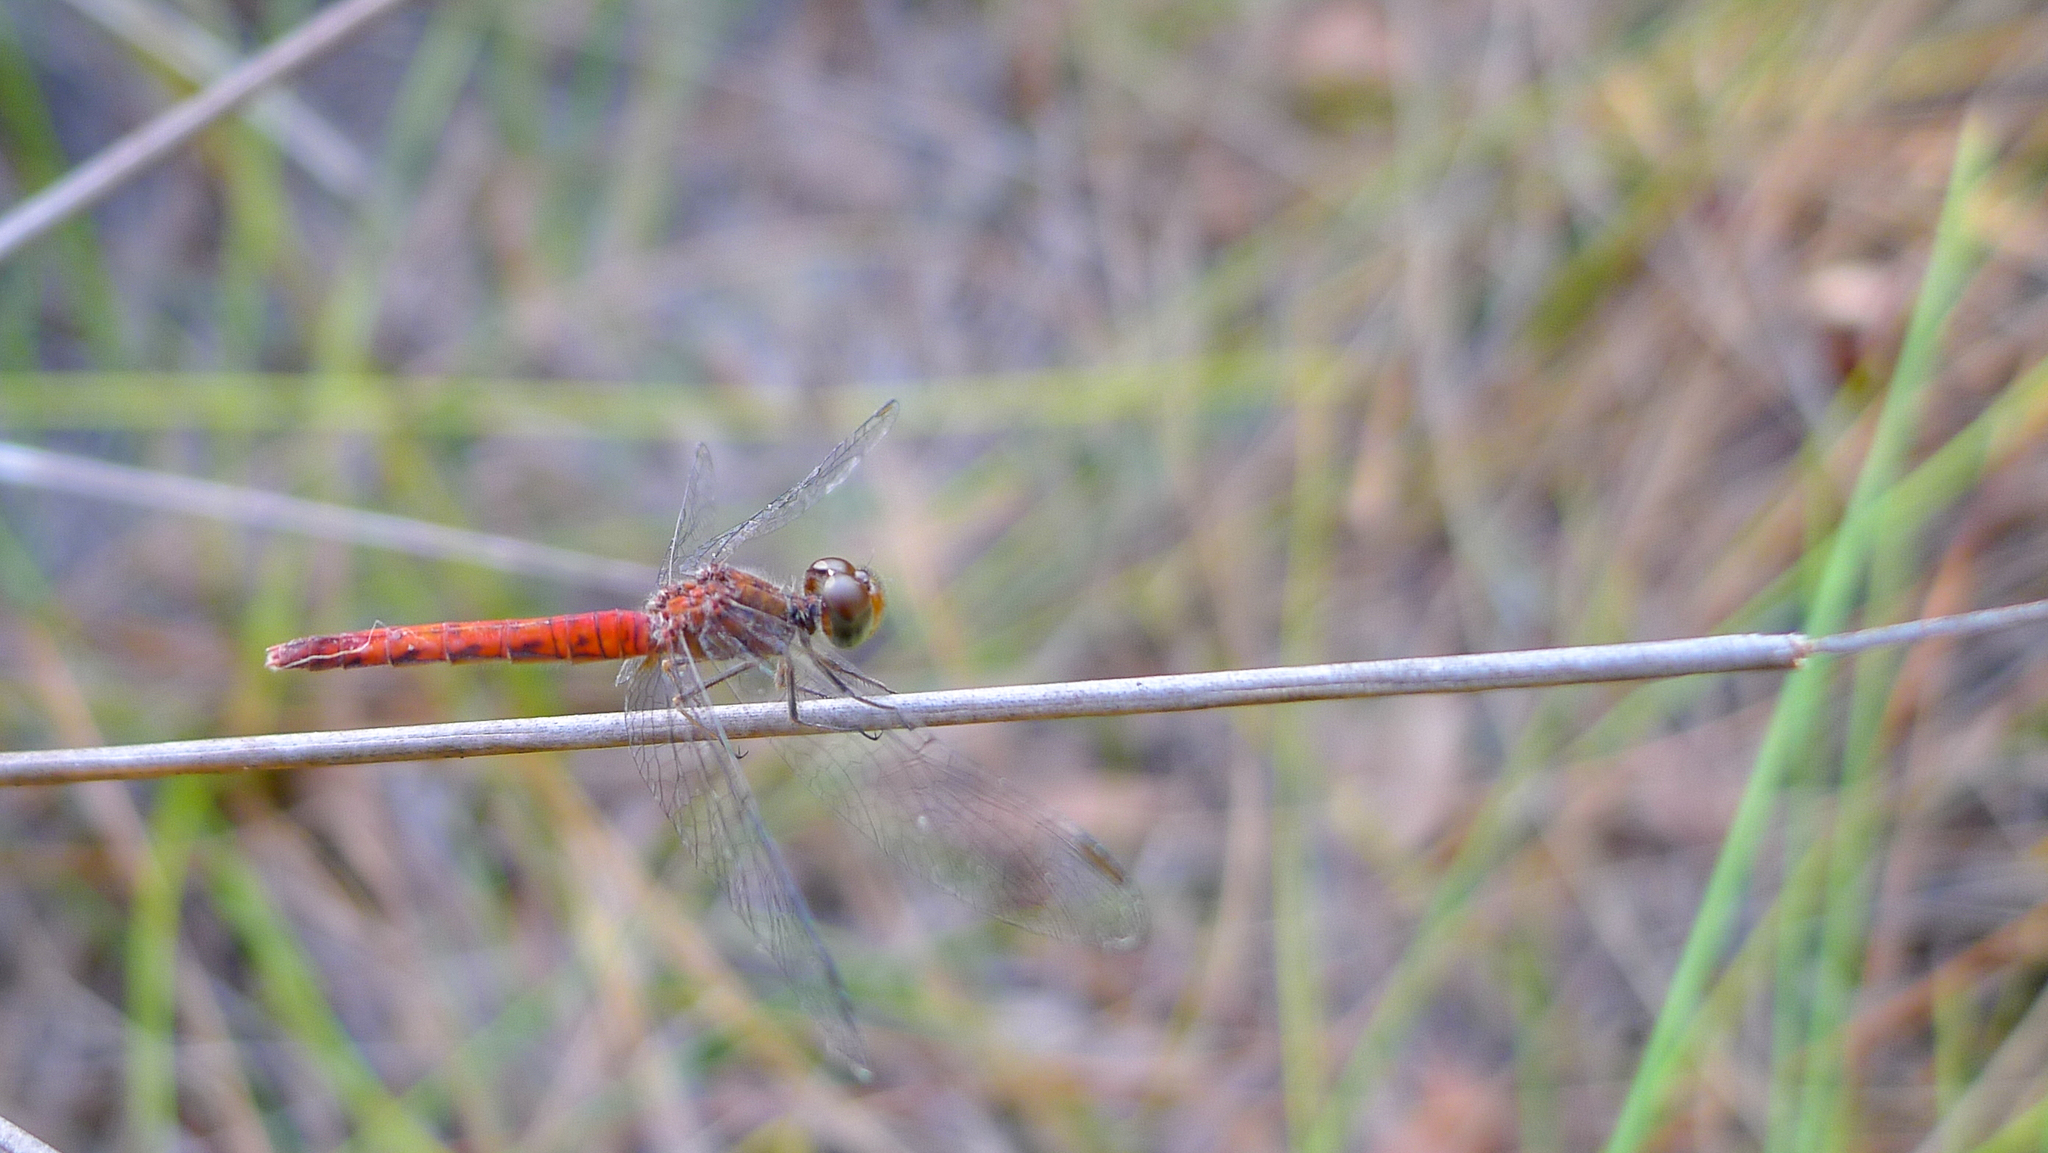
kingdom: Animalia
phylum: Arthropoda
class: Insecta
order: Odonata
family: Libellulidae
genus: Nannodiplax
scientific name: Nannodiplax rubra
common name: Pygmy percher
